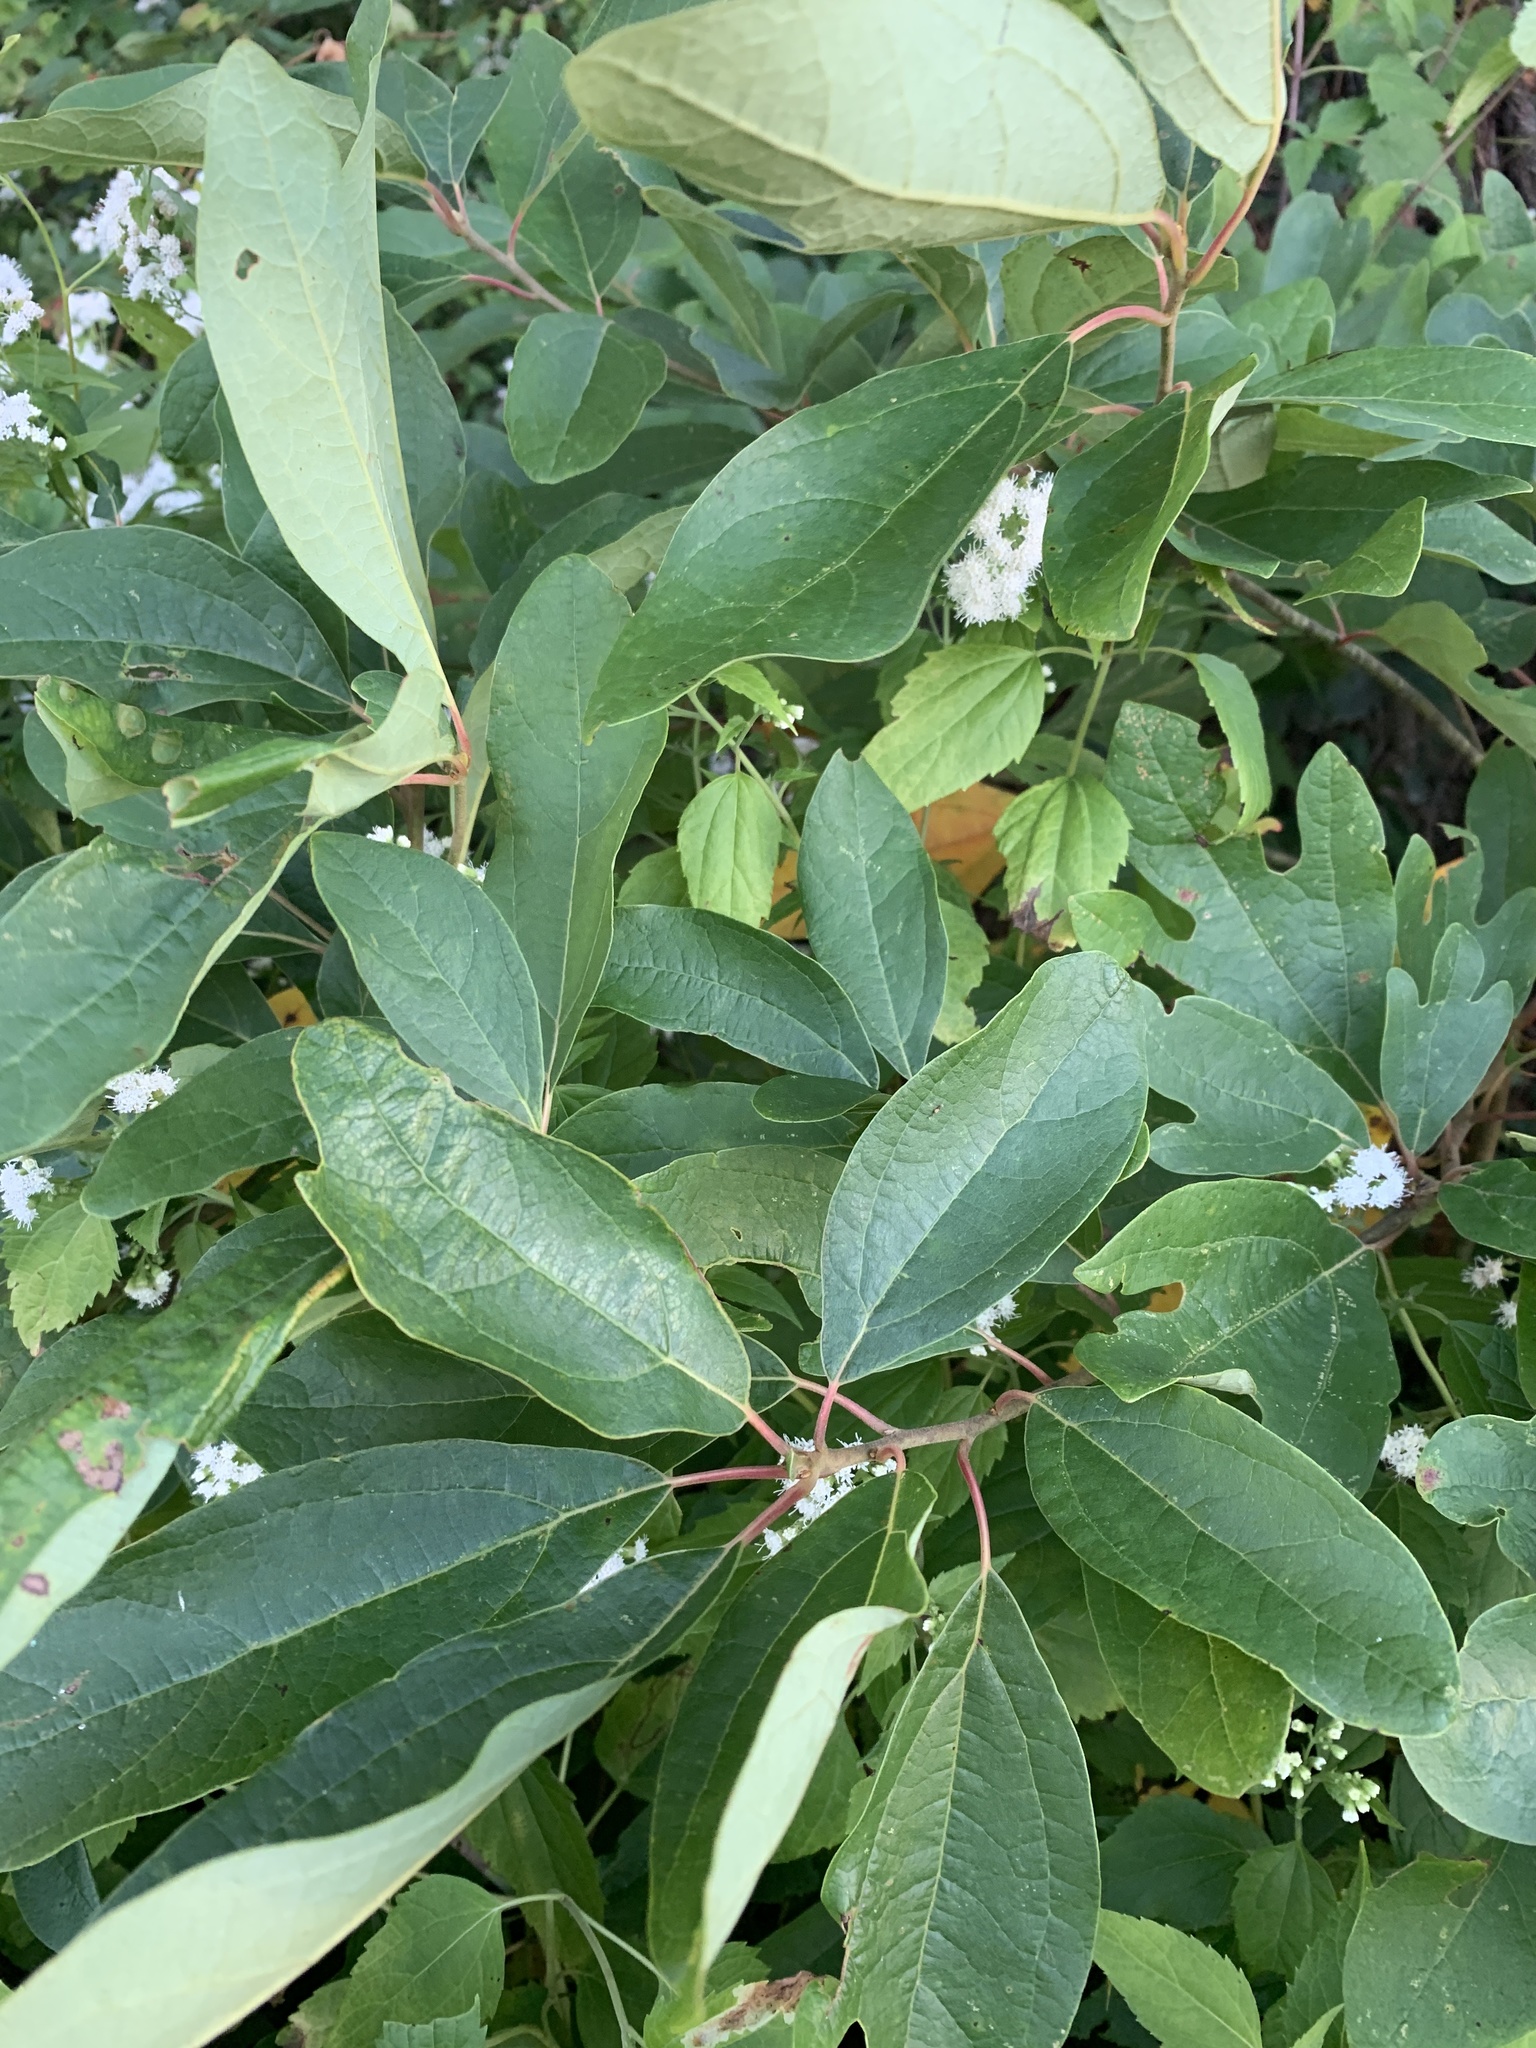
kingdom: Plantae
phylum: Tracheophyta
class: Magnoliopsida
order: Laurales
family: Lauraceae
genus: Sassafras
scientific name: Sassafras albidum
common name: Sassafras
